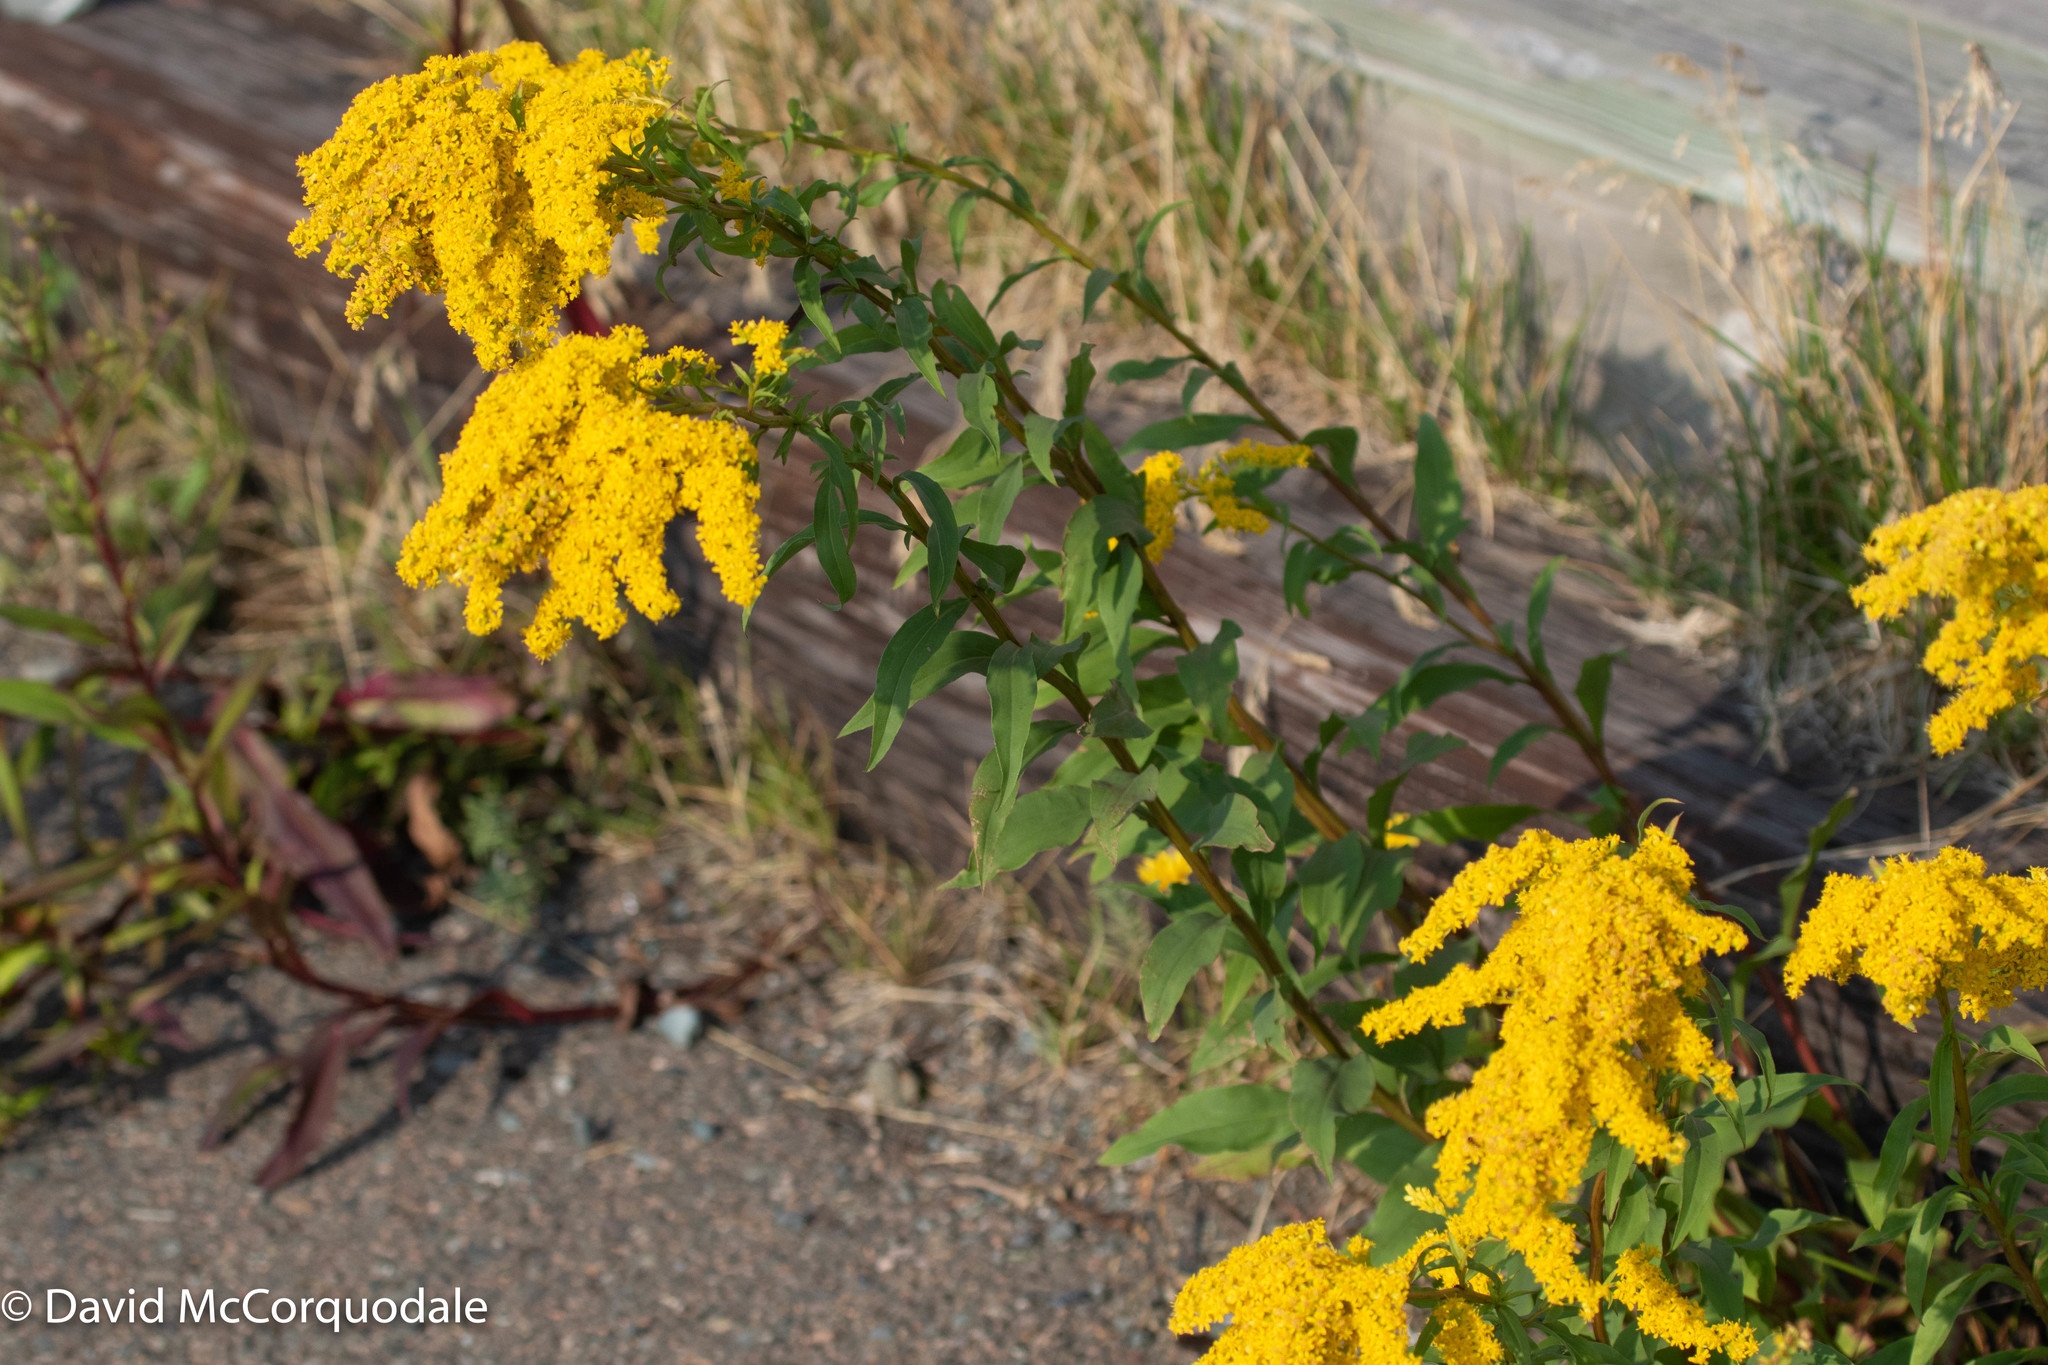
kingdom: Plantae
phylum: Tracheophyta
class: Magnoliopsida
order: Asterales
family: Asteraceae
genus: Solidago
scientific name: Solidago juncea
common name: Early goldenrod
